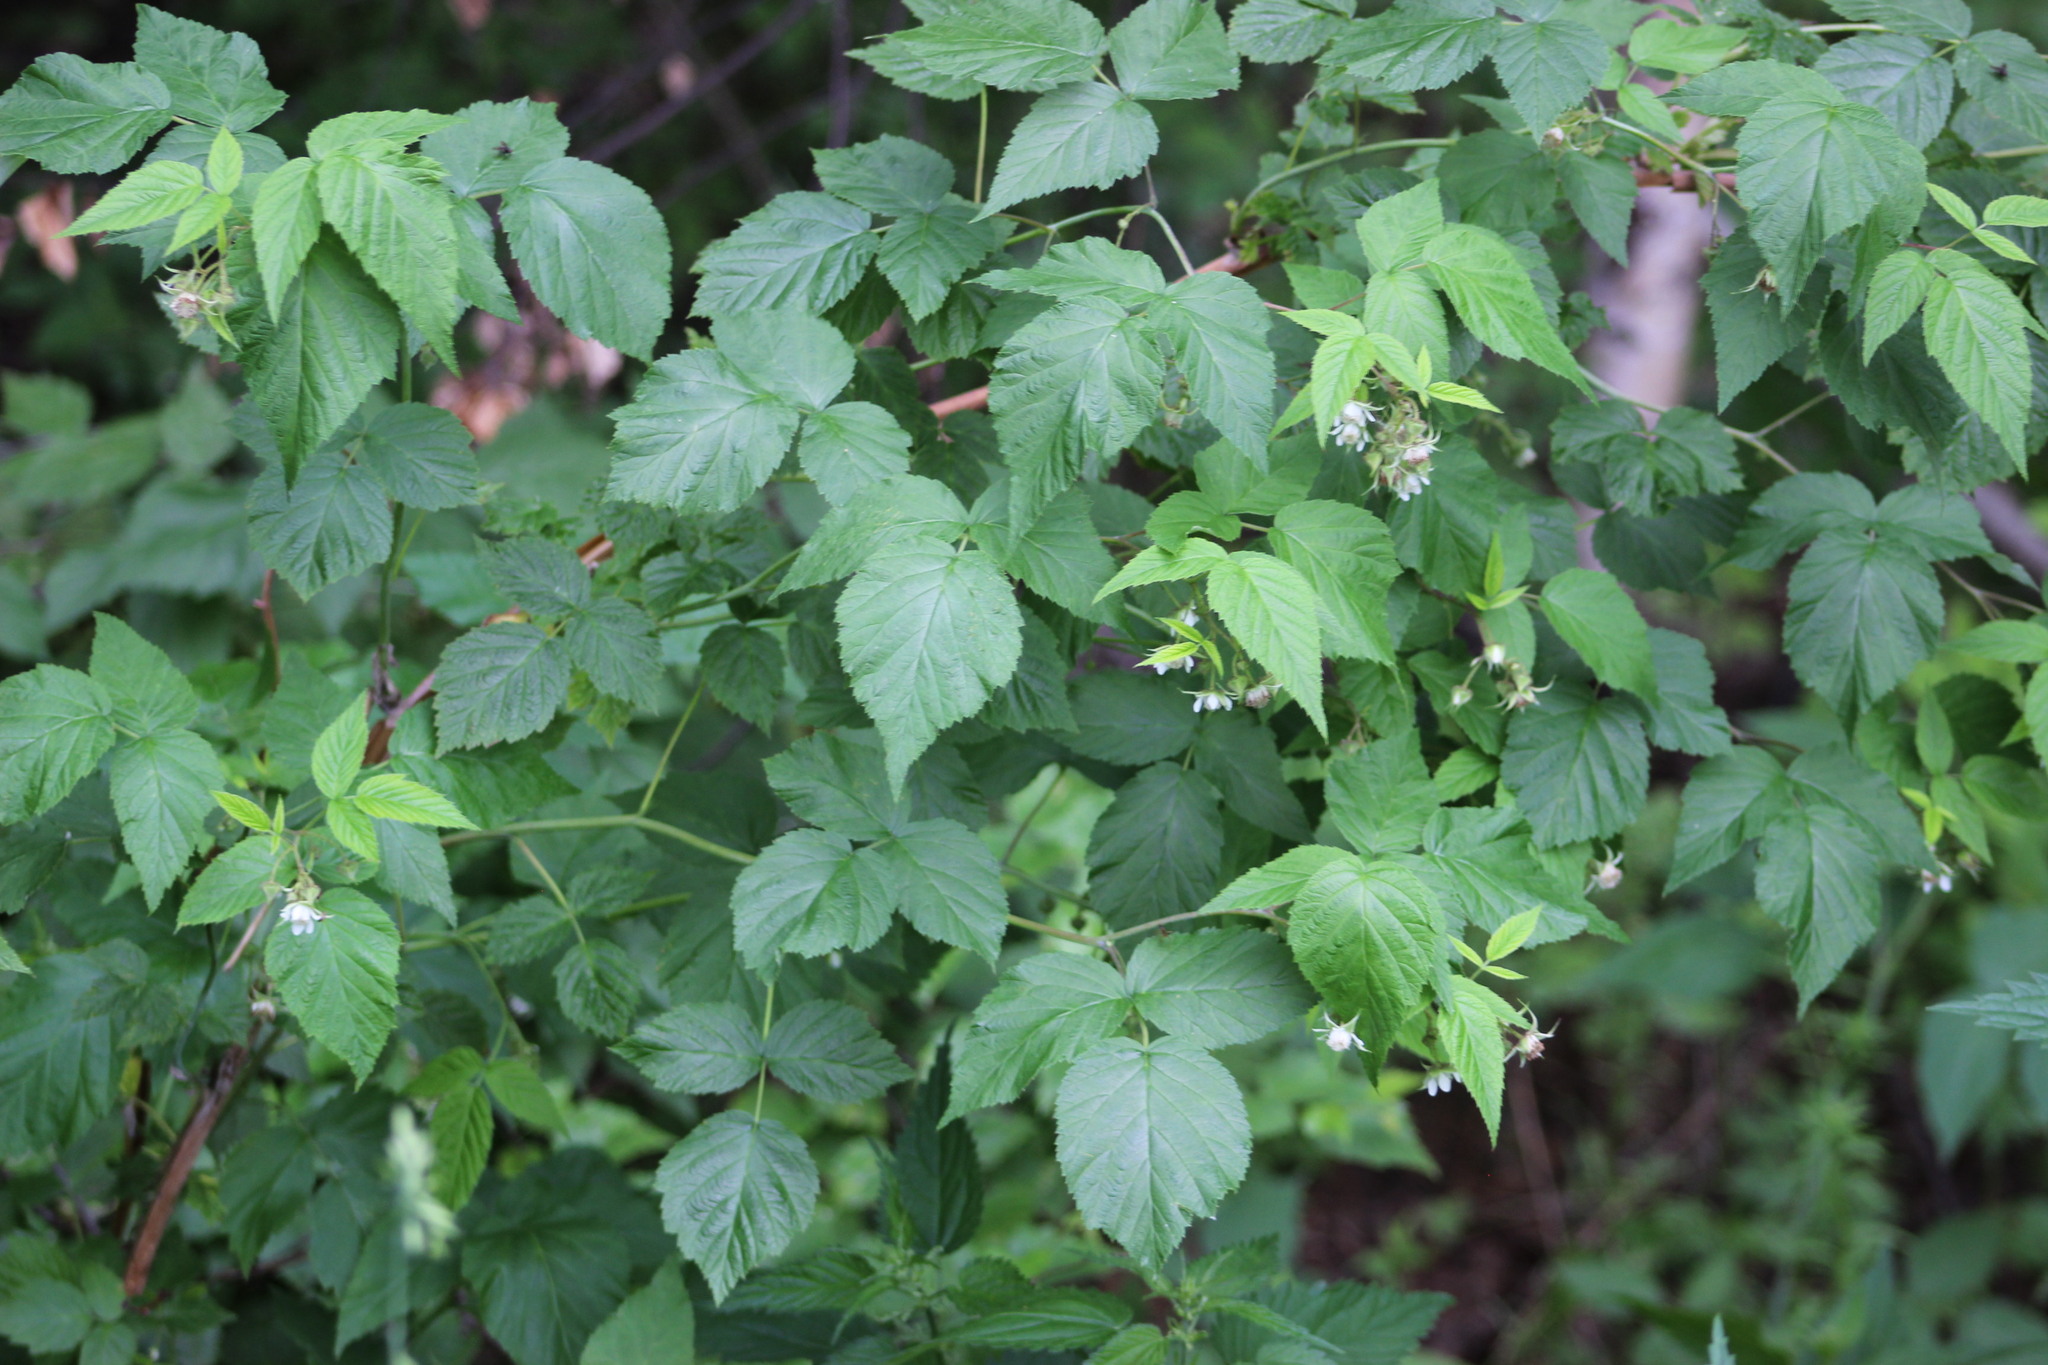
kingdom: Plantae
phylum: Tracheophyta
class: Magnoliopsida
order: Rosales
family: Rosaceae
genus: Rubus
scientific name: Rubus idaeus
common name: Raspberry
